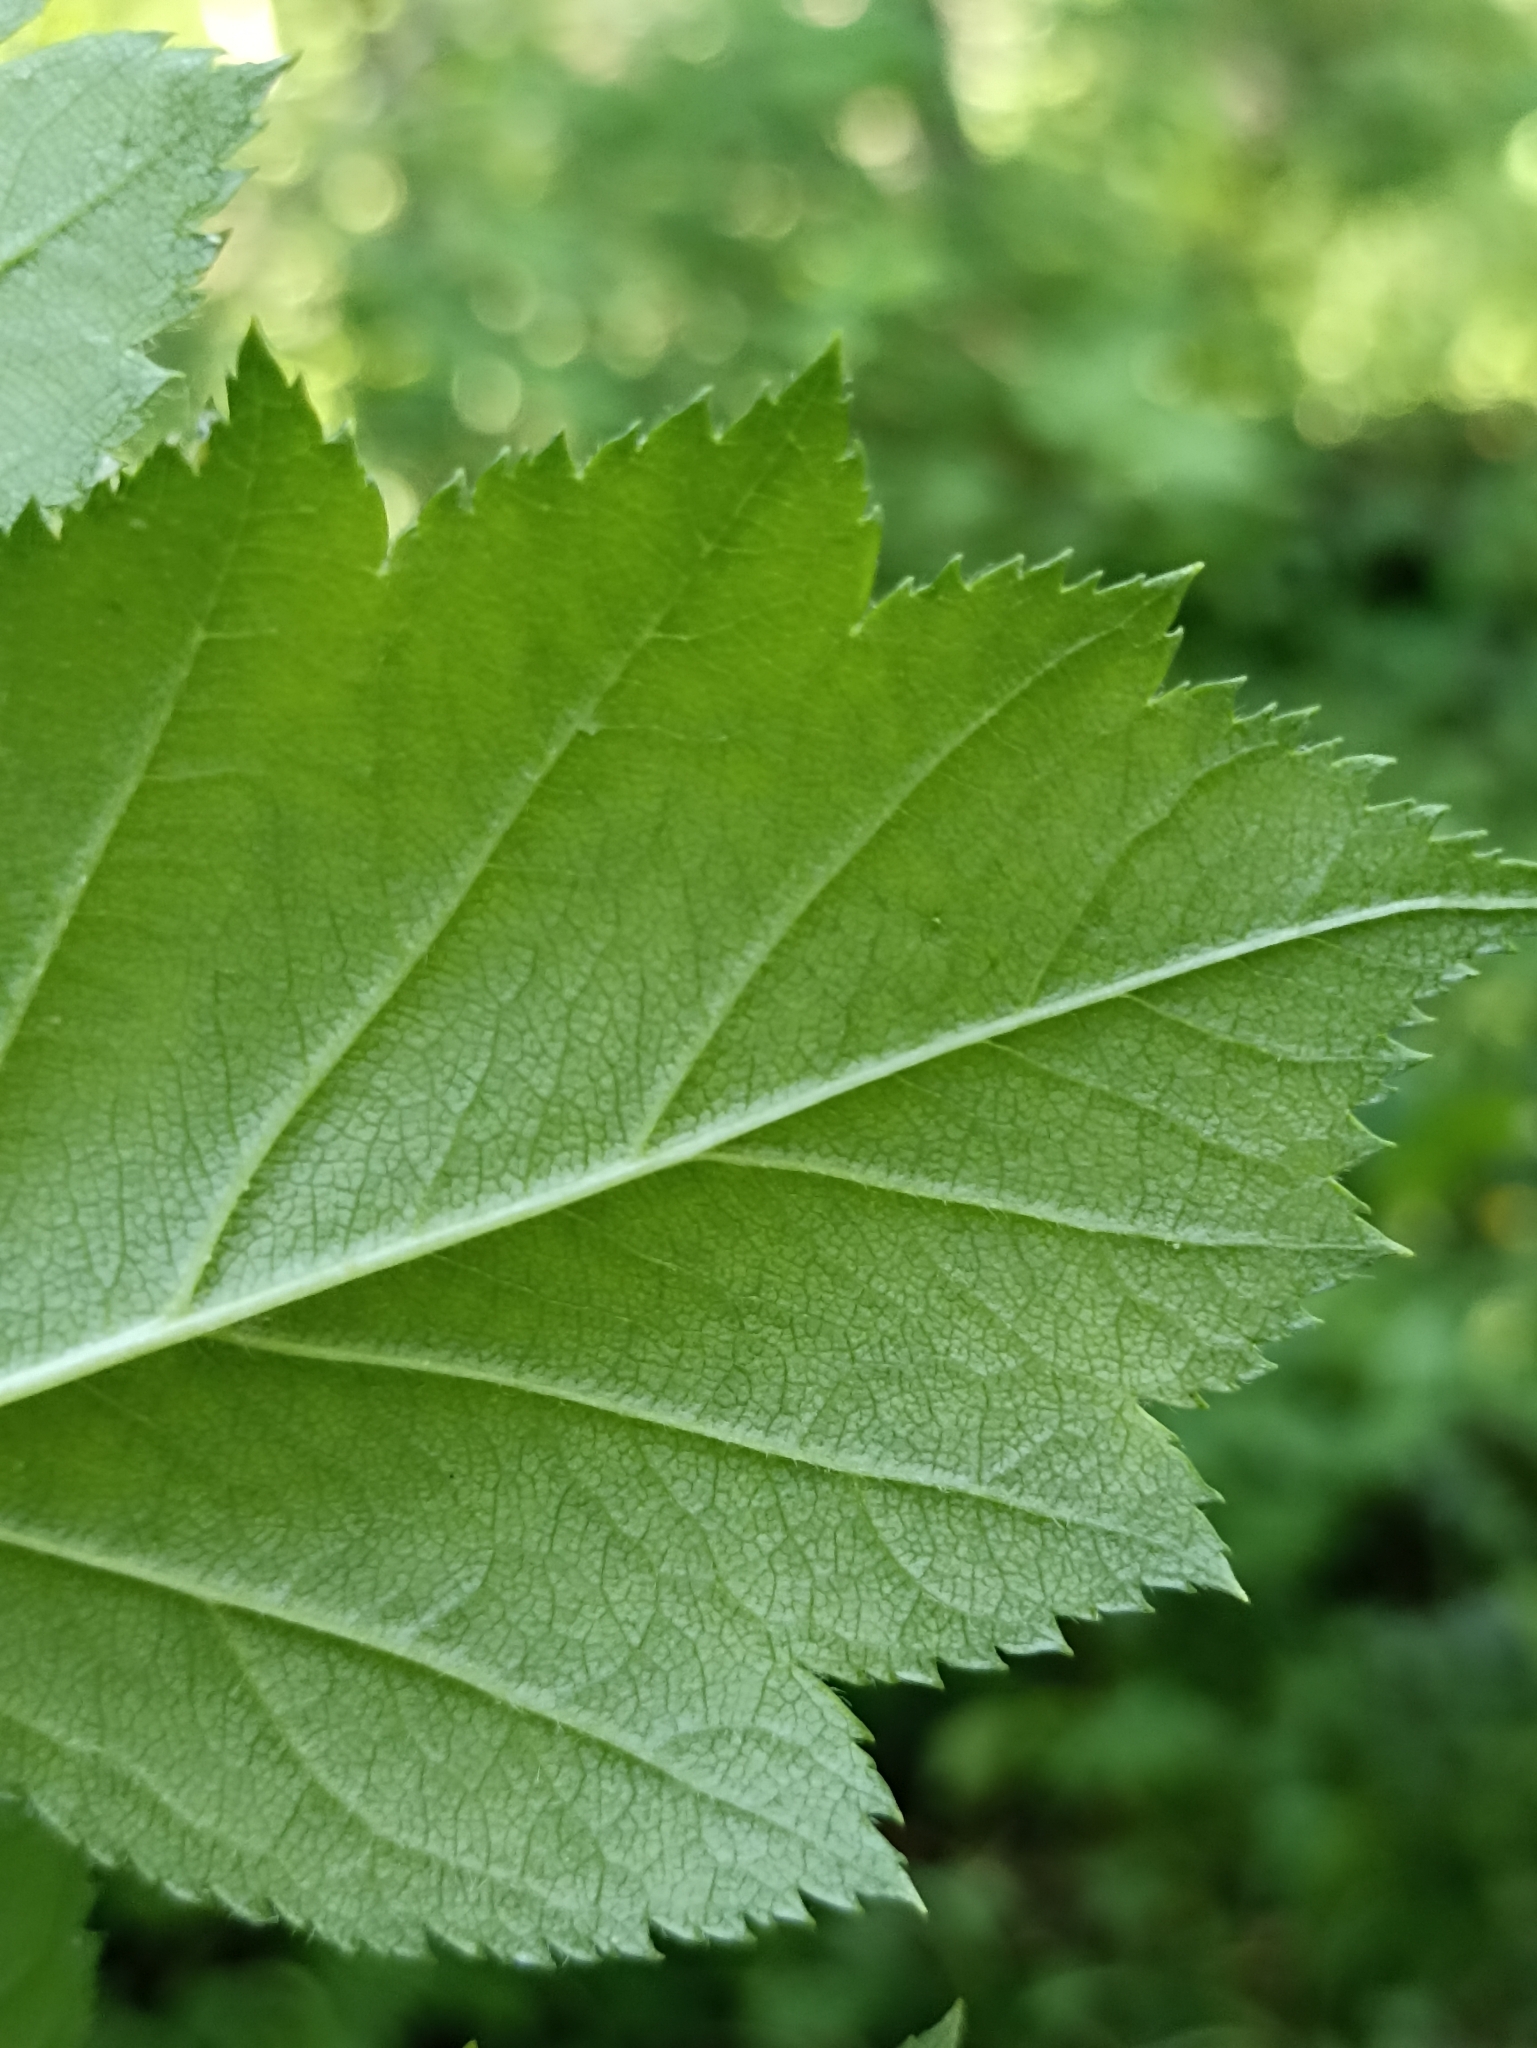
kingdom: Plantae
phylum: Tracheophyta
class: Magnoliopsida
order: Rosales
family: Rosaceae
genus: Crataegus
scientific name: Crataegus sanguinea
